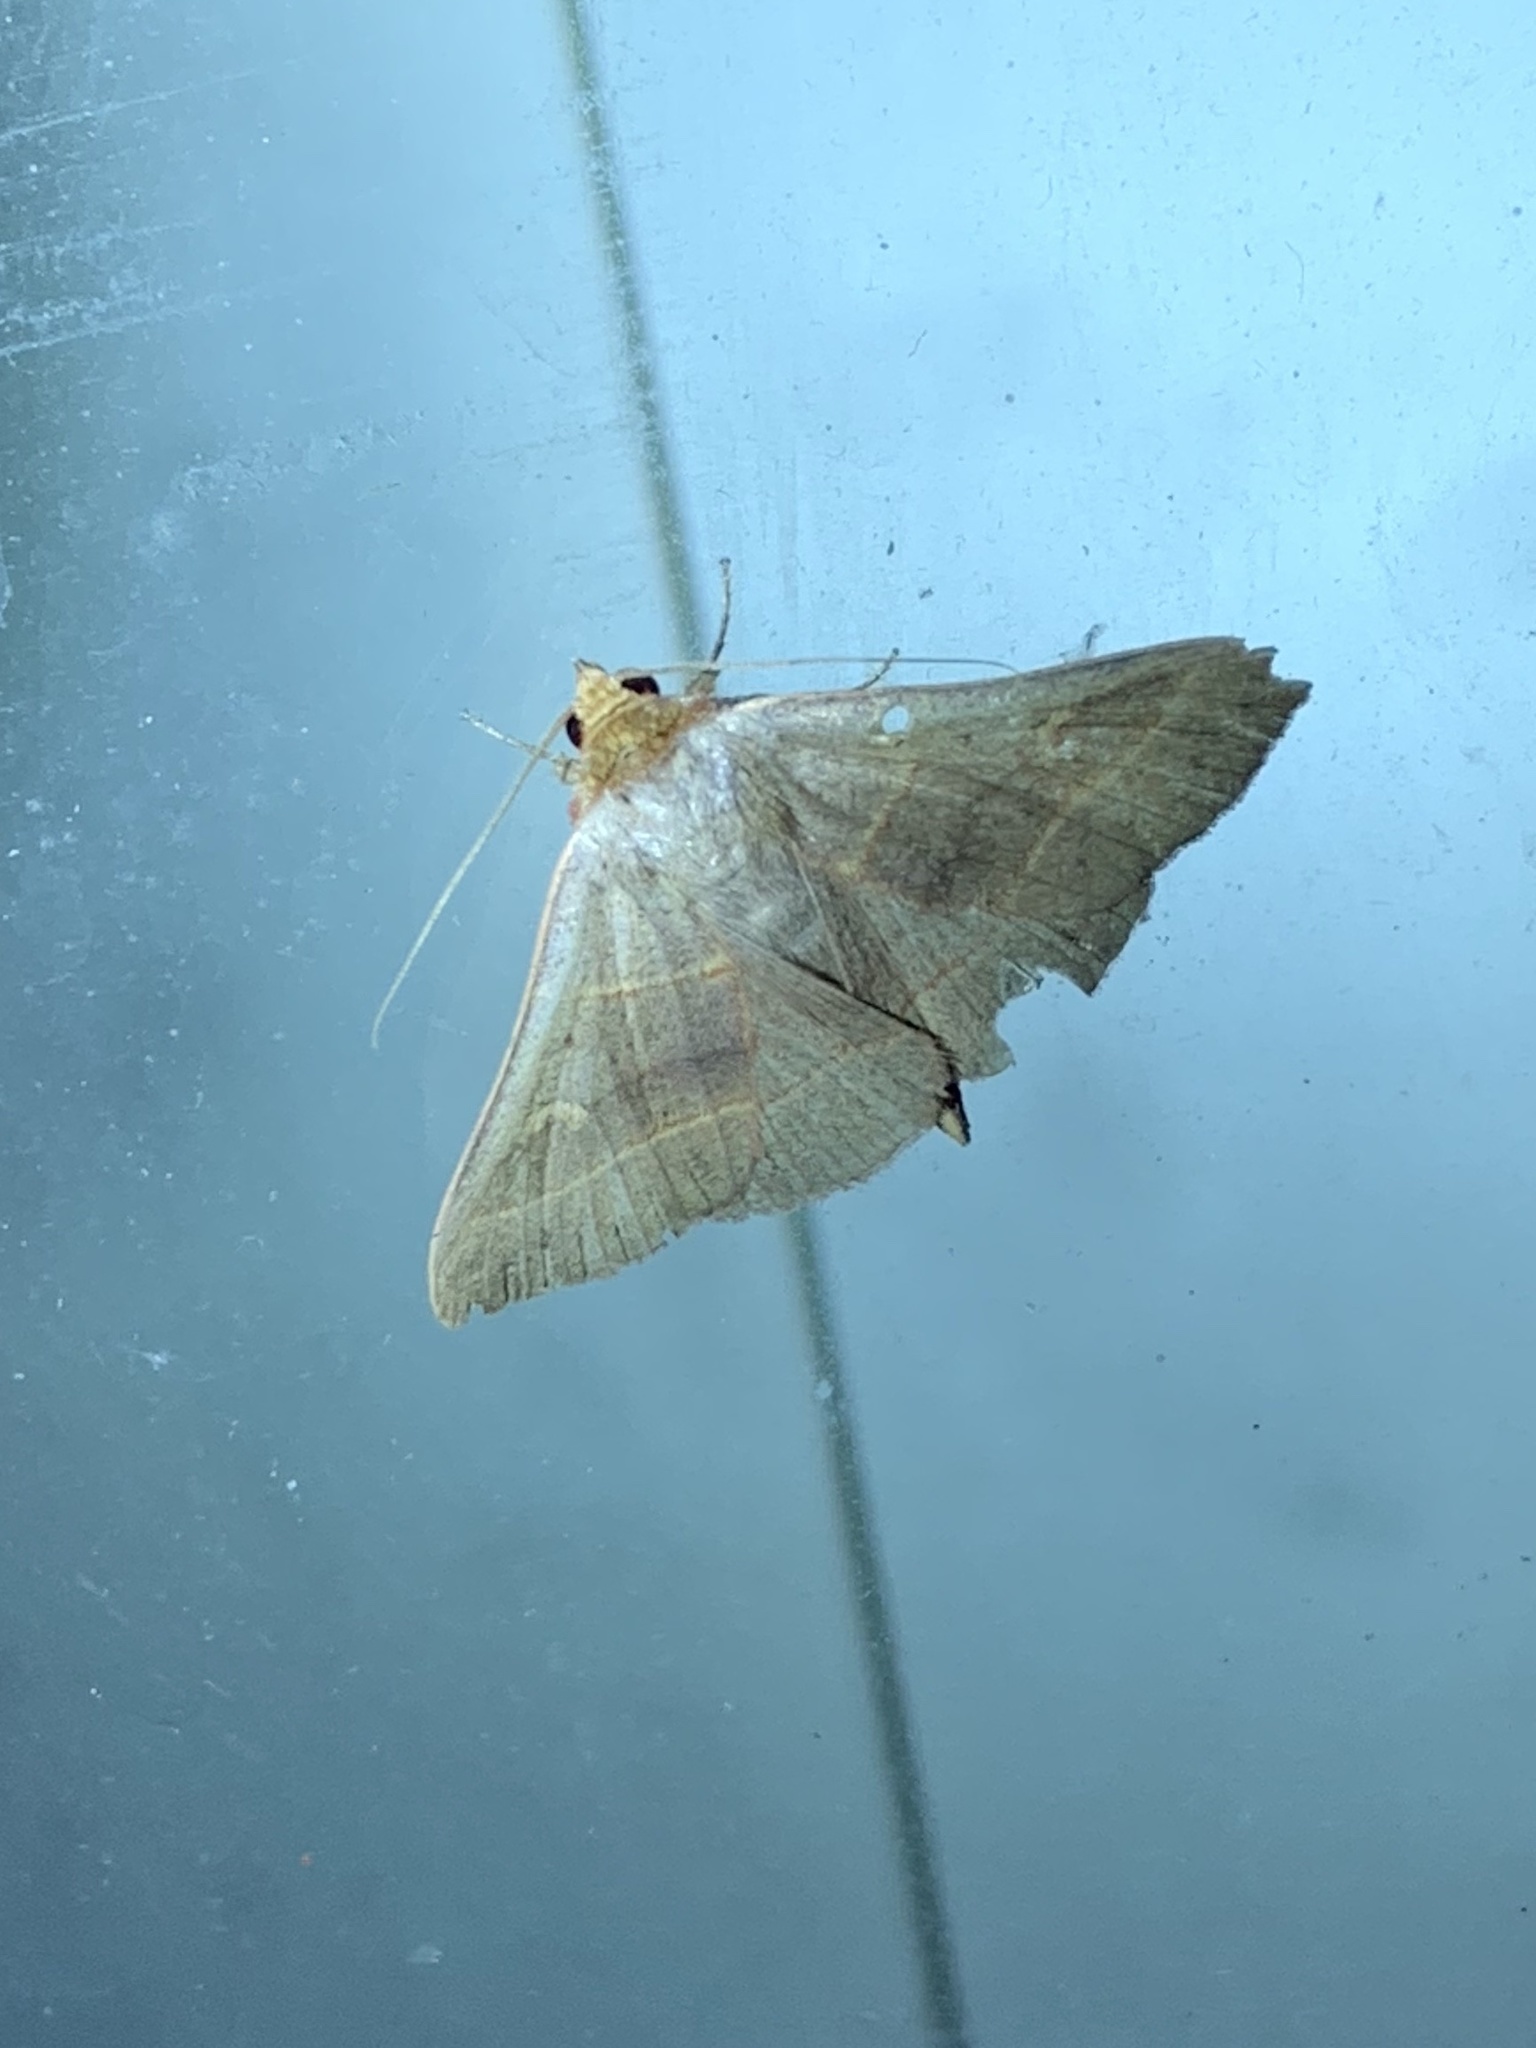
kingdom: Animalia
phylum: Arthropoda
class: Insecta
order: Lepidoptera
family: Erebidae
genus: Panopoda
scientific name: Panopoda rufimargo
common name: Red-lined panopoda moth
